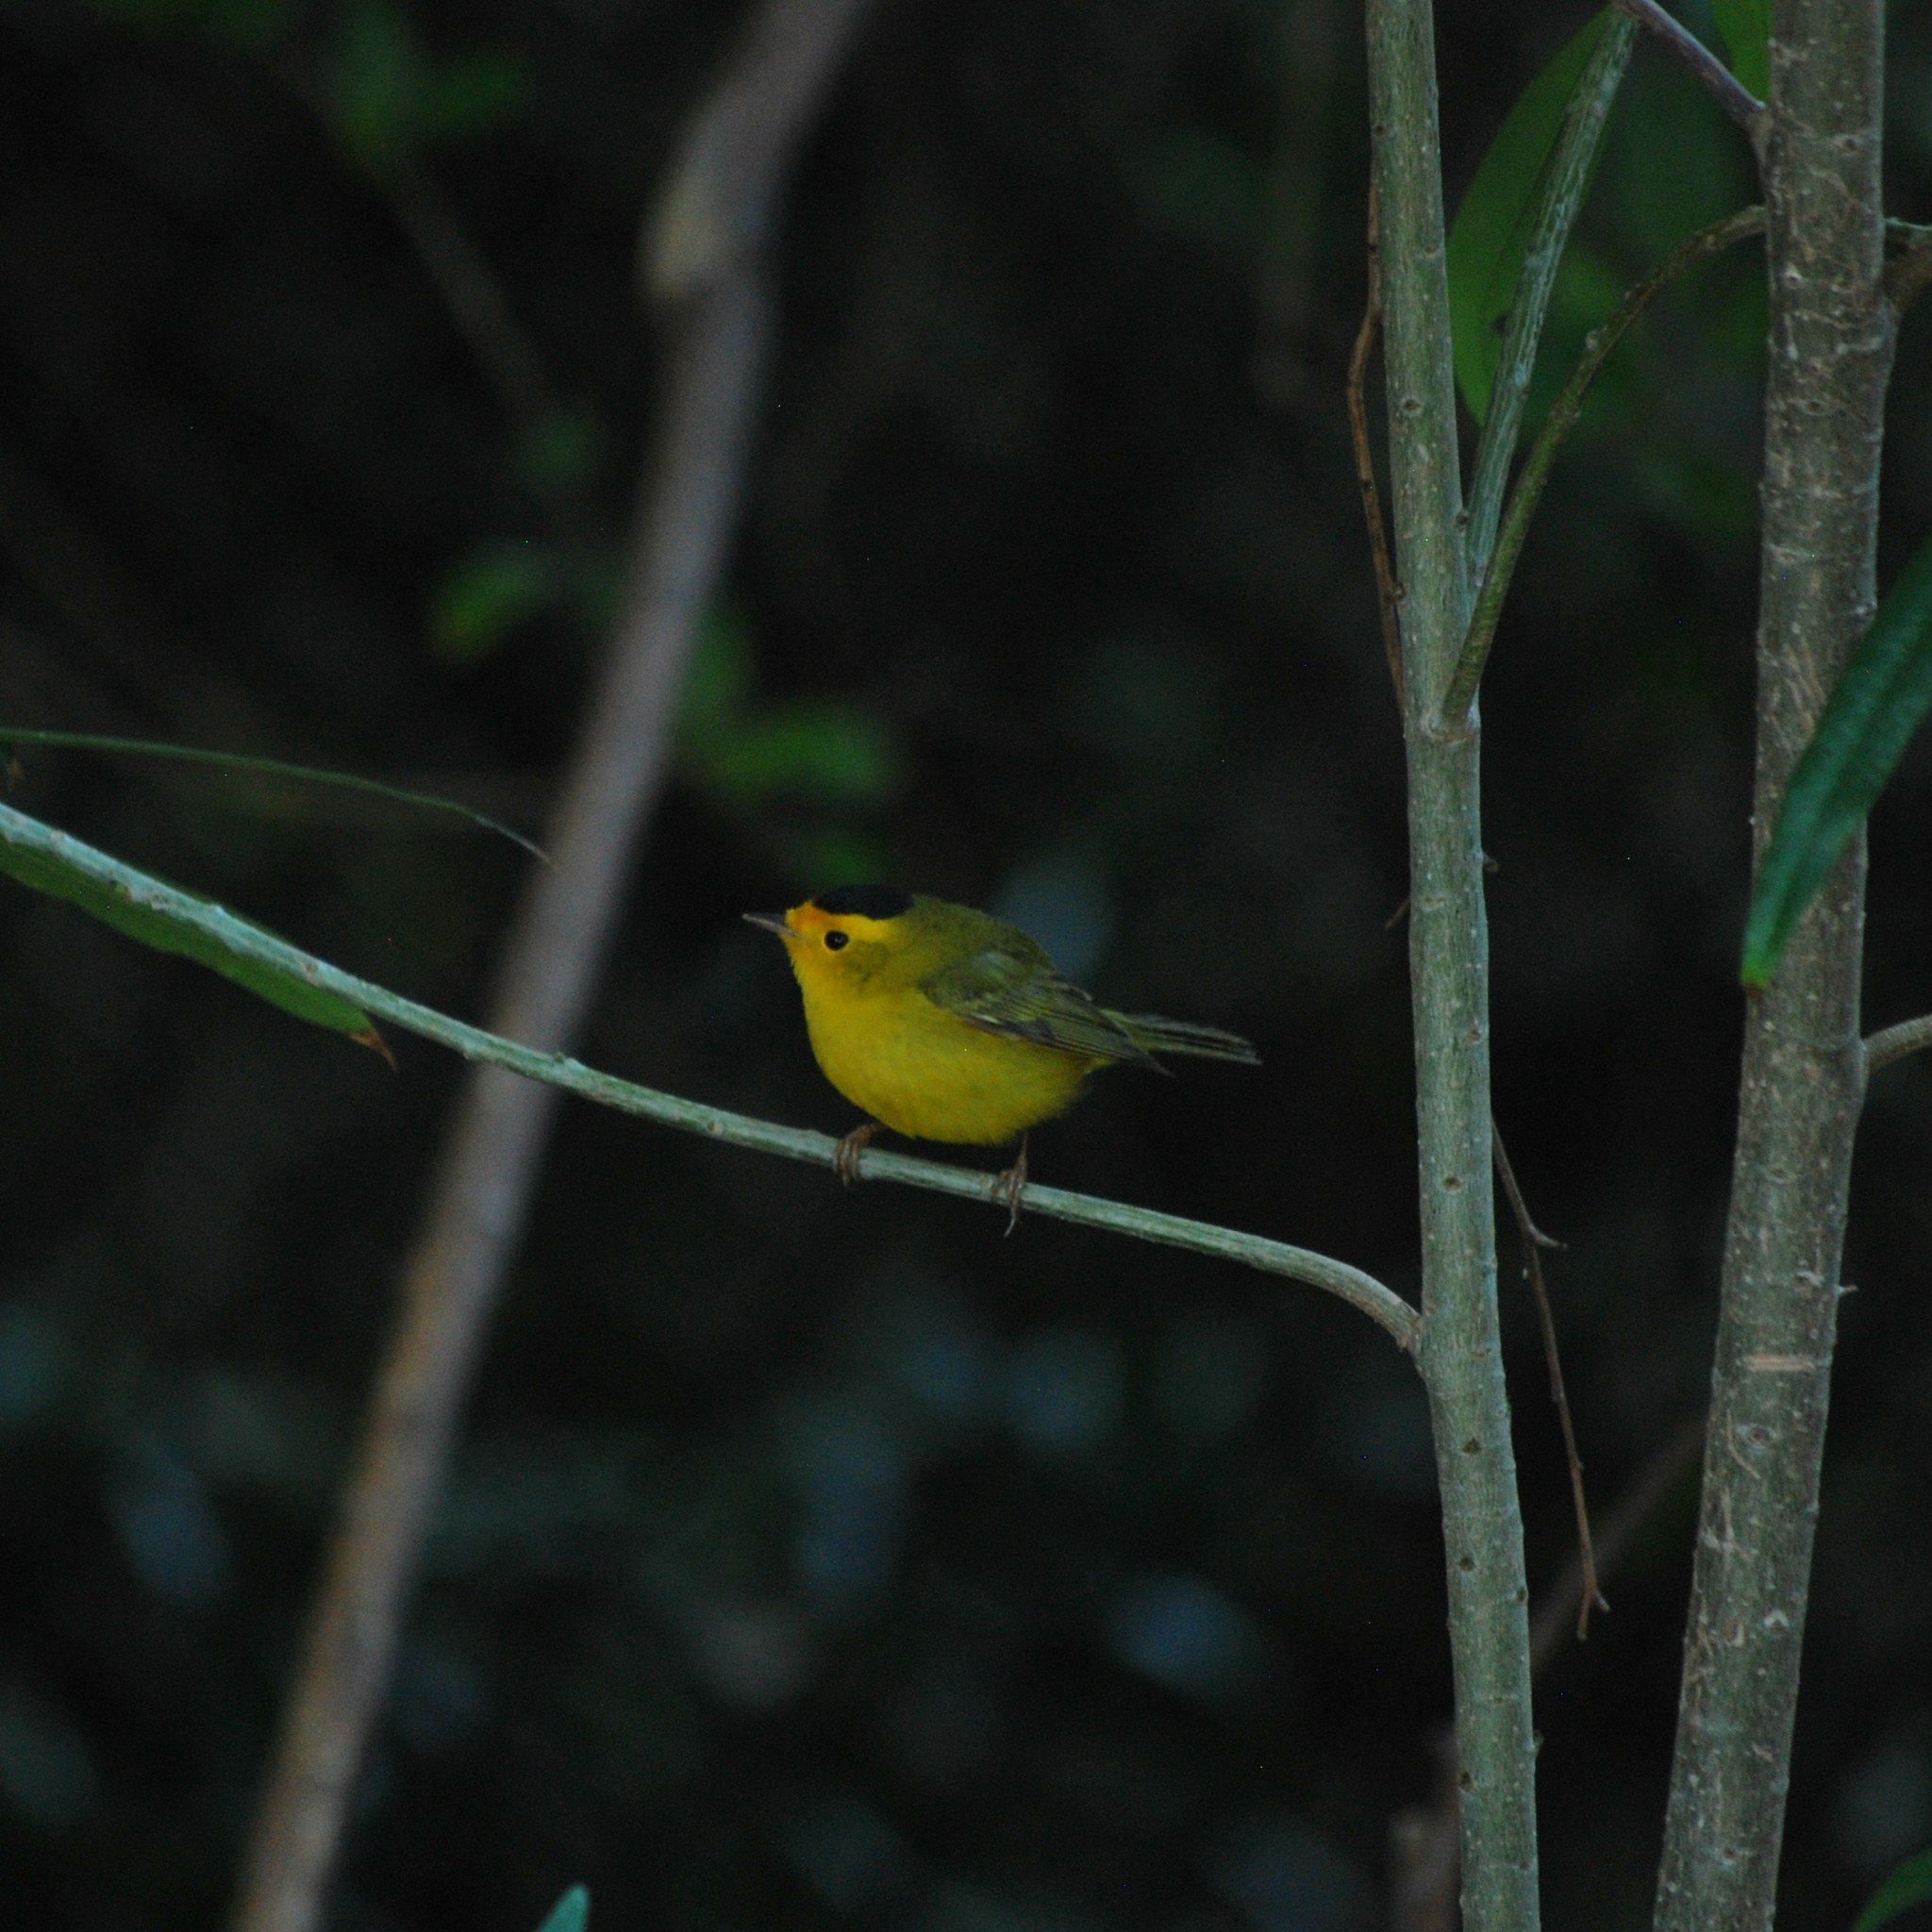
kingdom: Animalia
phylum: Chordata
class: Aves
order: Passeriformes
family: Parulidae
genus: Cardellina
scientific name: Cardellina pusilla
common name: Wilson's warbler
